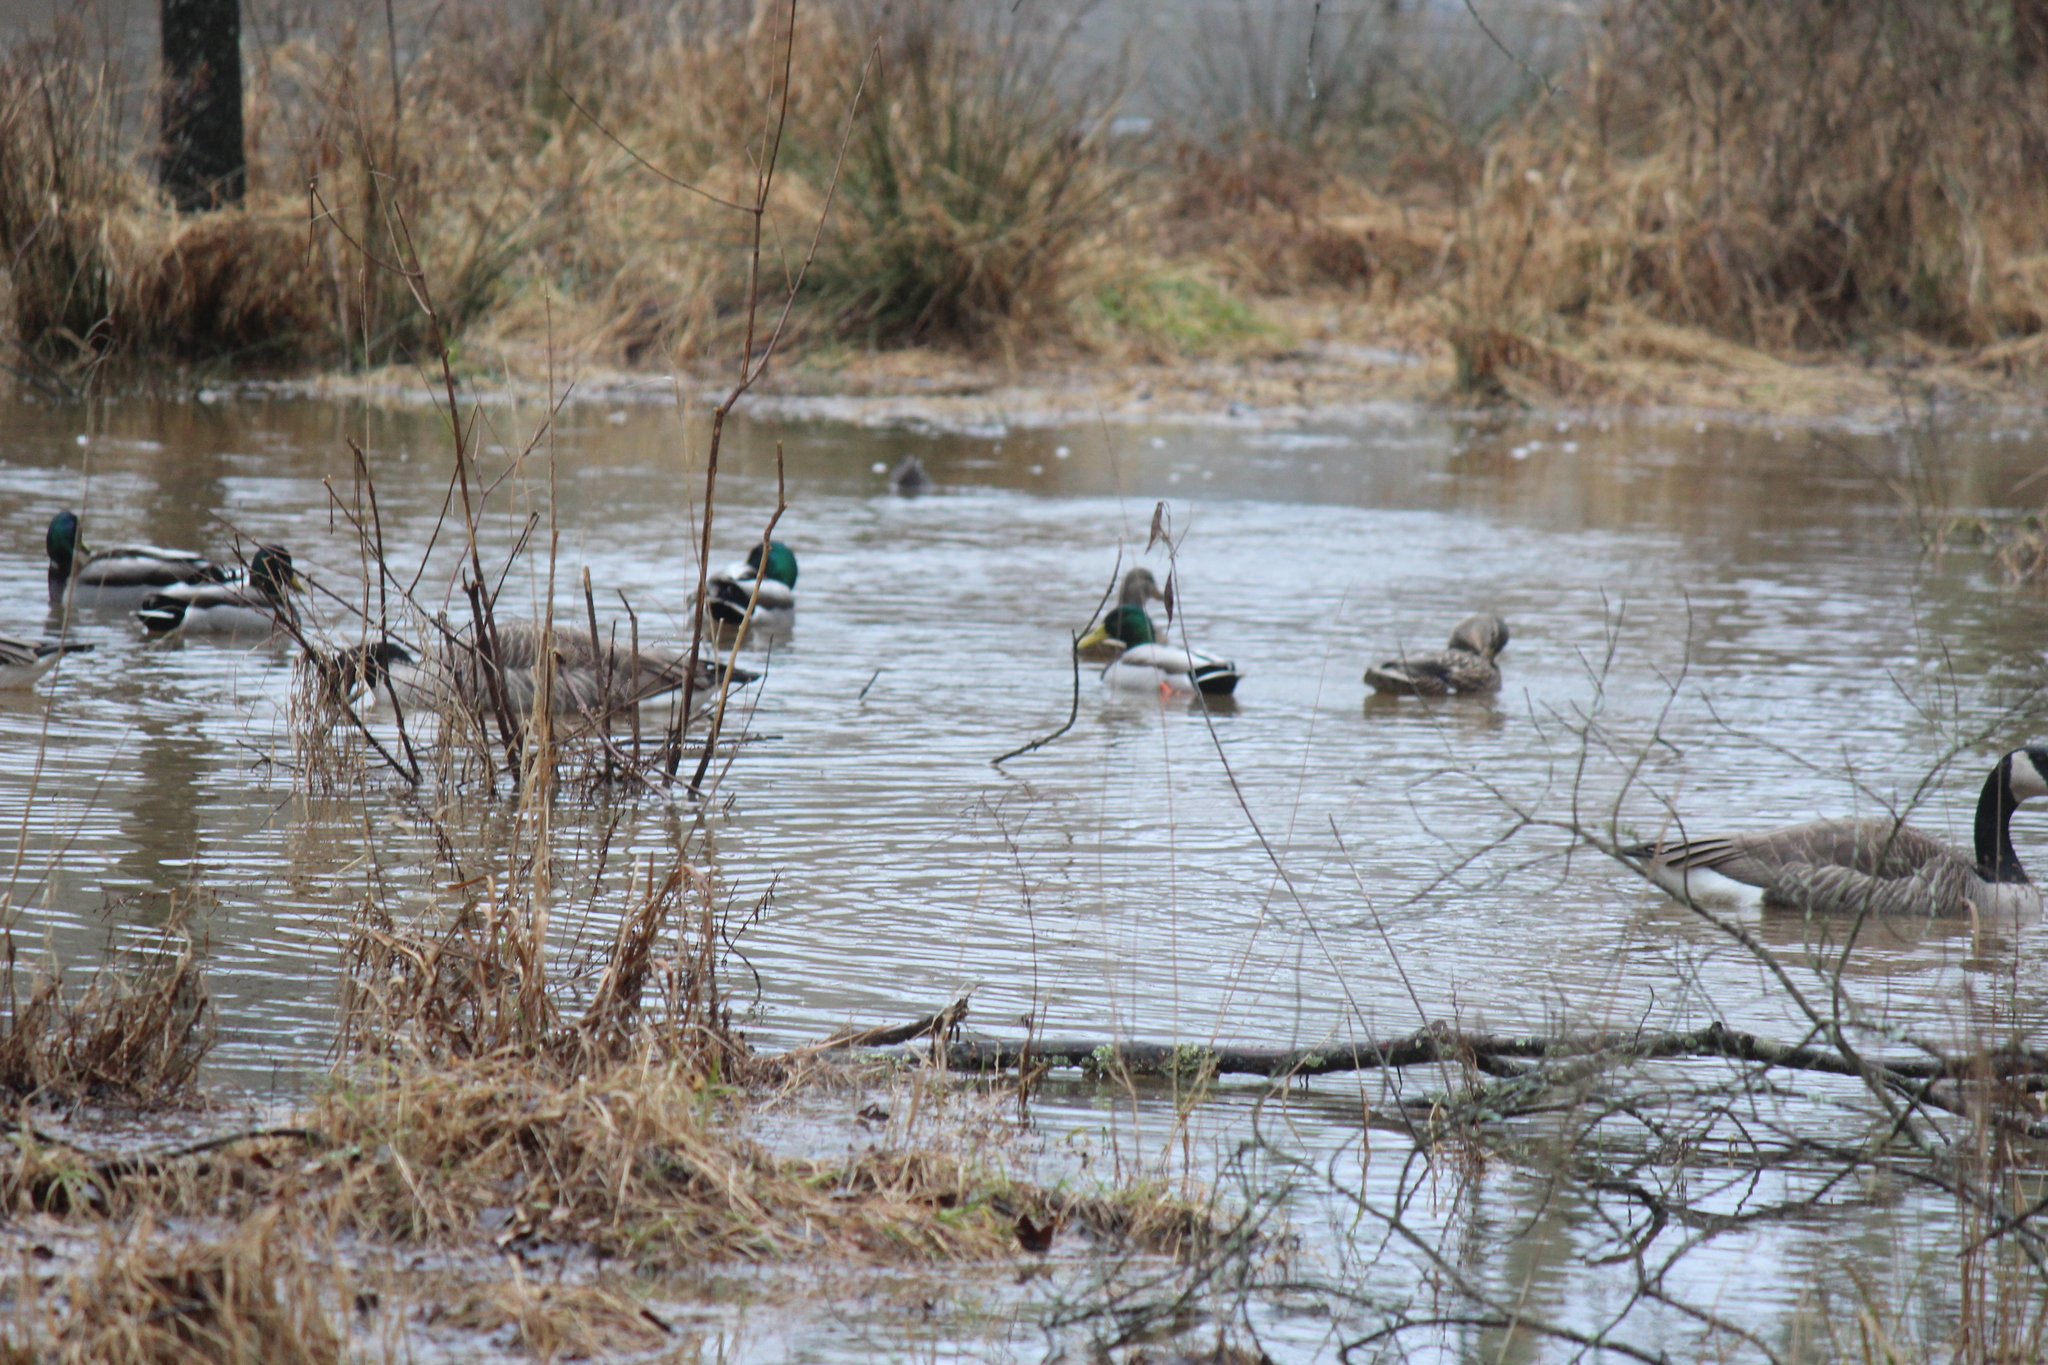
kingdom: Animalia
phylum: Chordata
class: Aves
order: Anseriformes
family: Anatidae
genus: Anas
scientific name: Anas platyrhynchos
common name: Mallard
